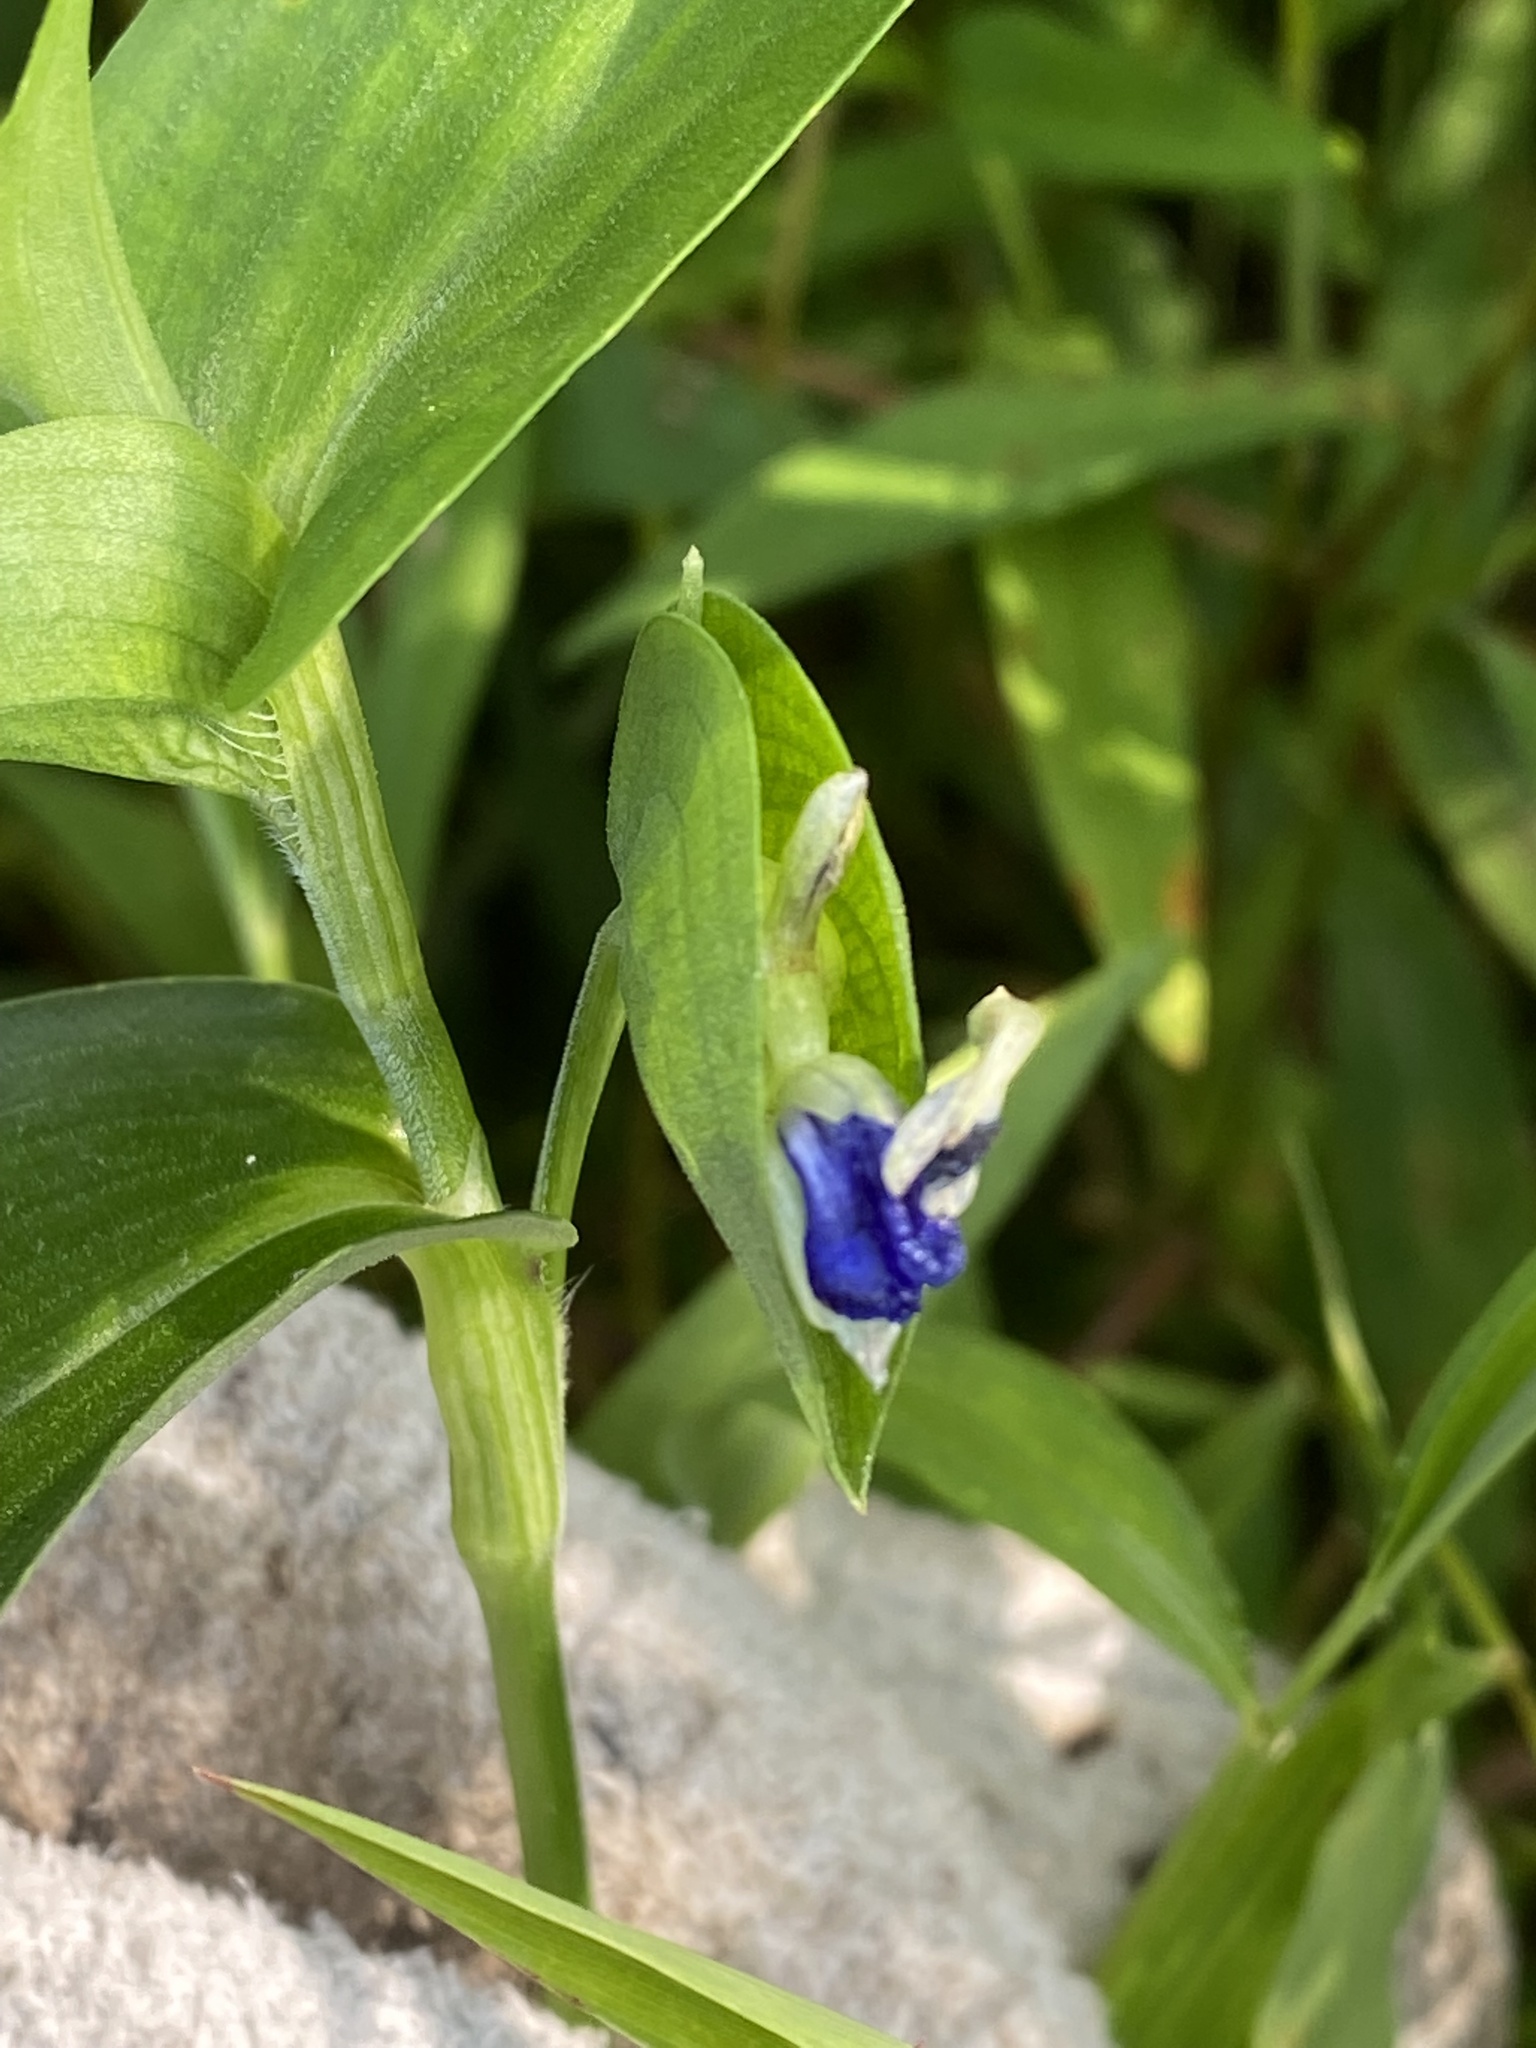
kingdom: Plantae
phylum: Tracheophyta
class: Liliopsida
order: Commelinales
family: Commelinaceae
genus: Commelina
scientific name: Commelina communis
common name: Asiatic dayflower
